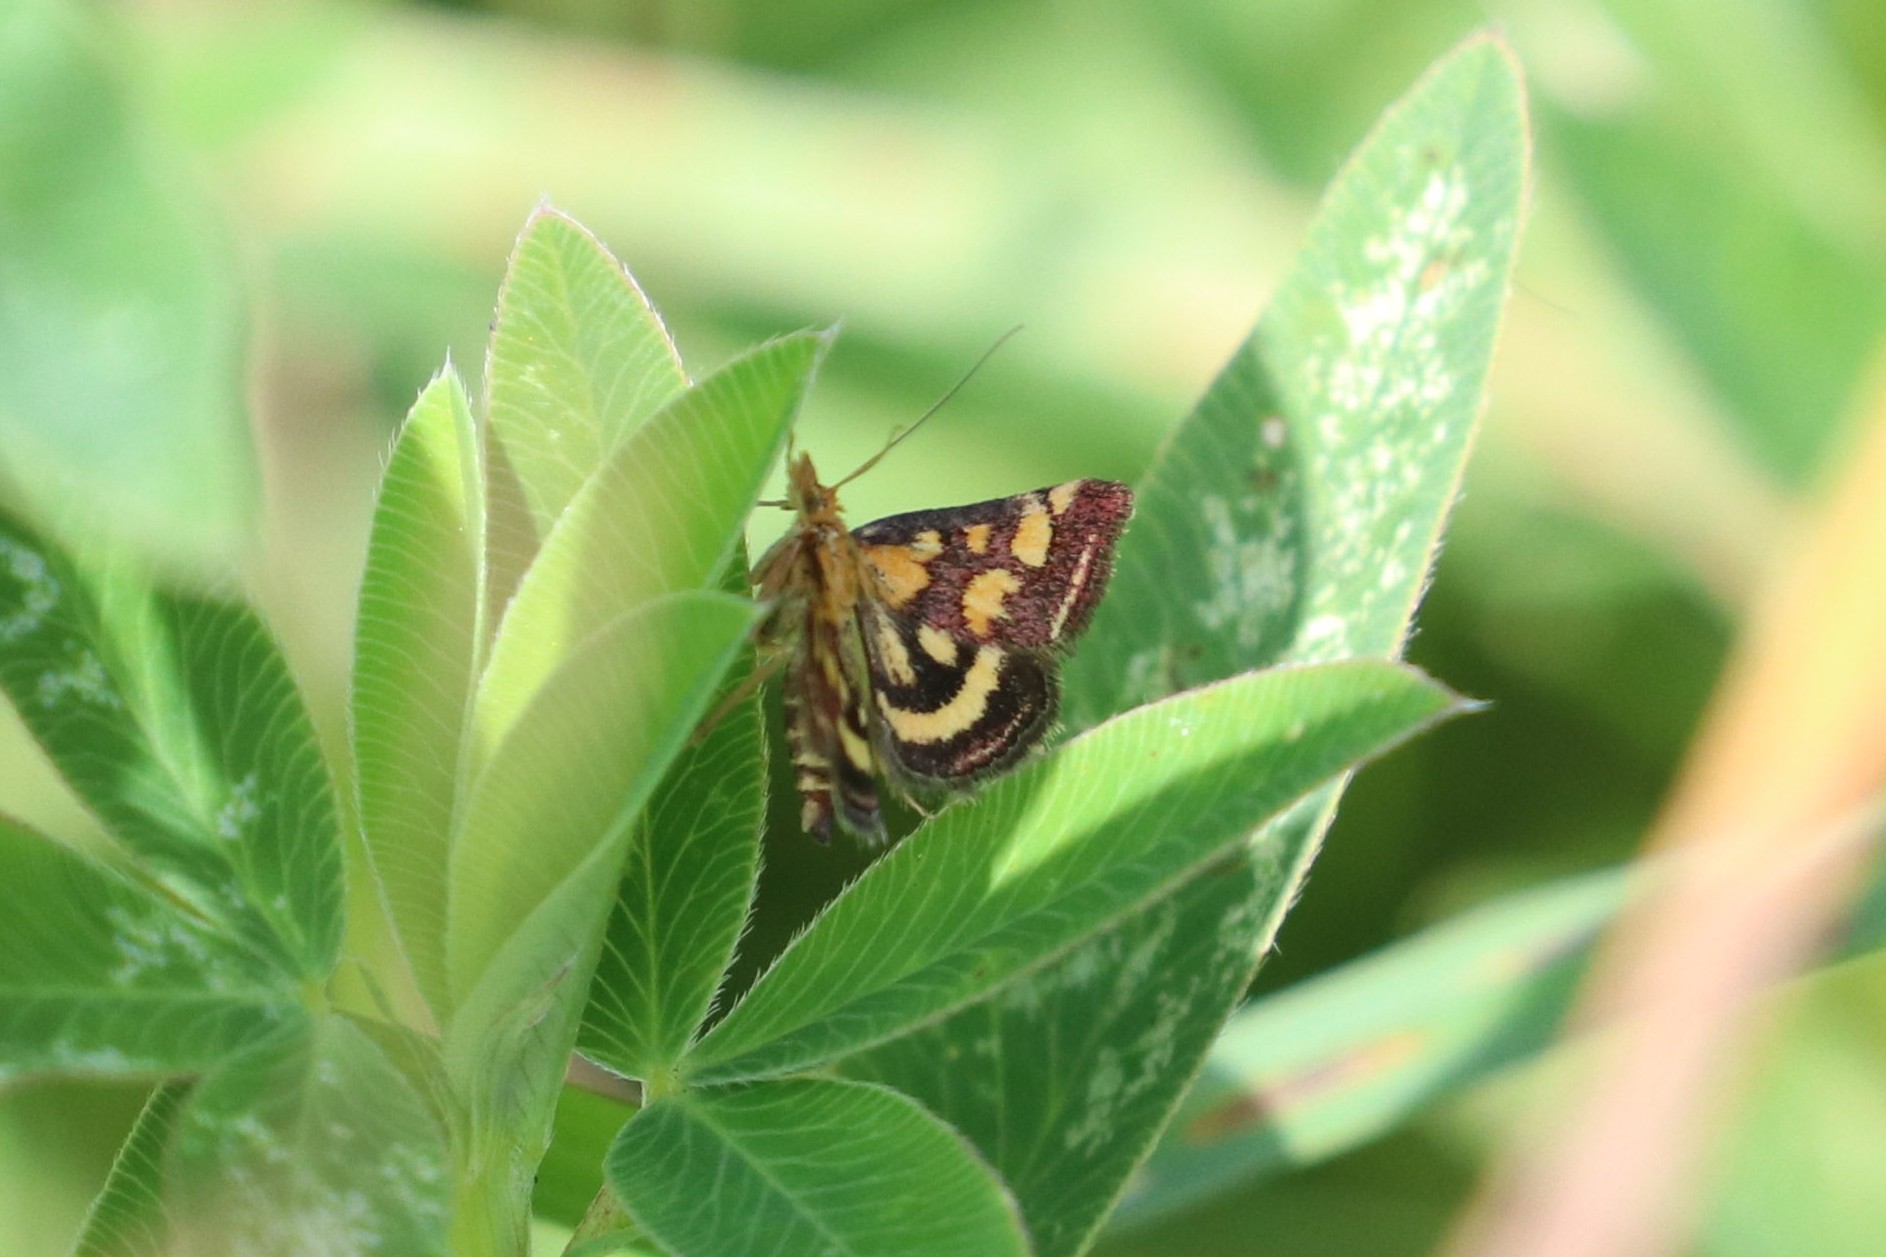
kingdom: Animalia
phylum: Arthropoda
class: Insecta
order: Lepidoptera
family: Crambidae
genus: Pyrausta
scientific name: Pyrausta purpuralis
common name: Common purple & gold
